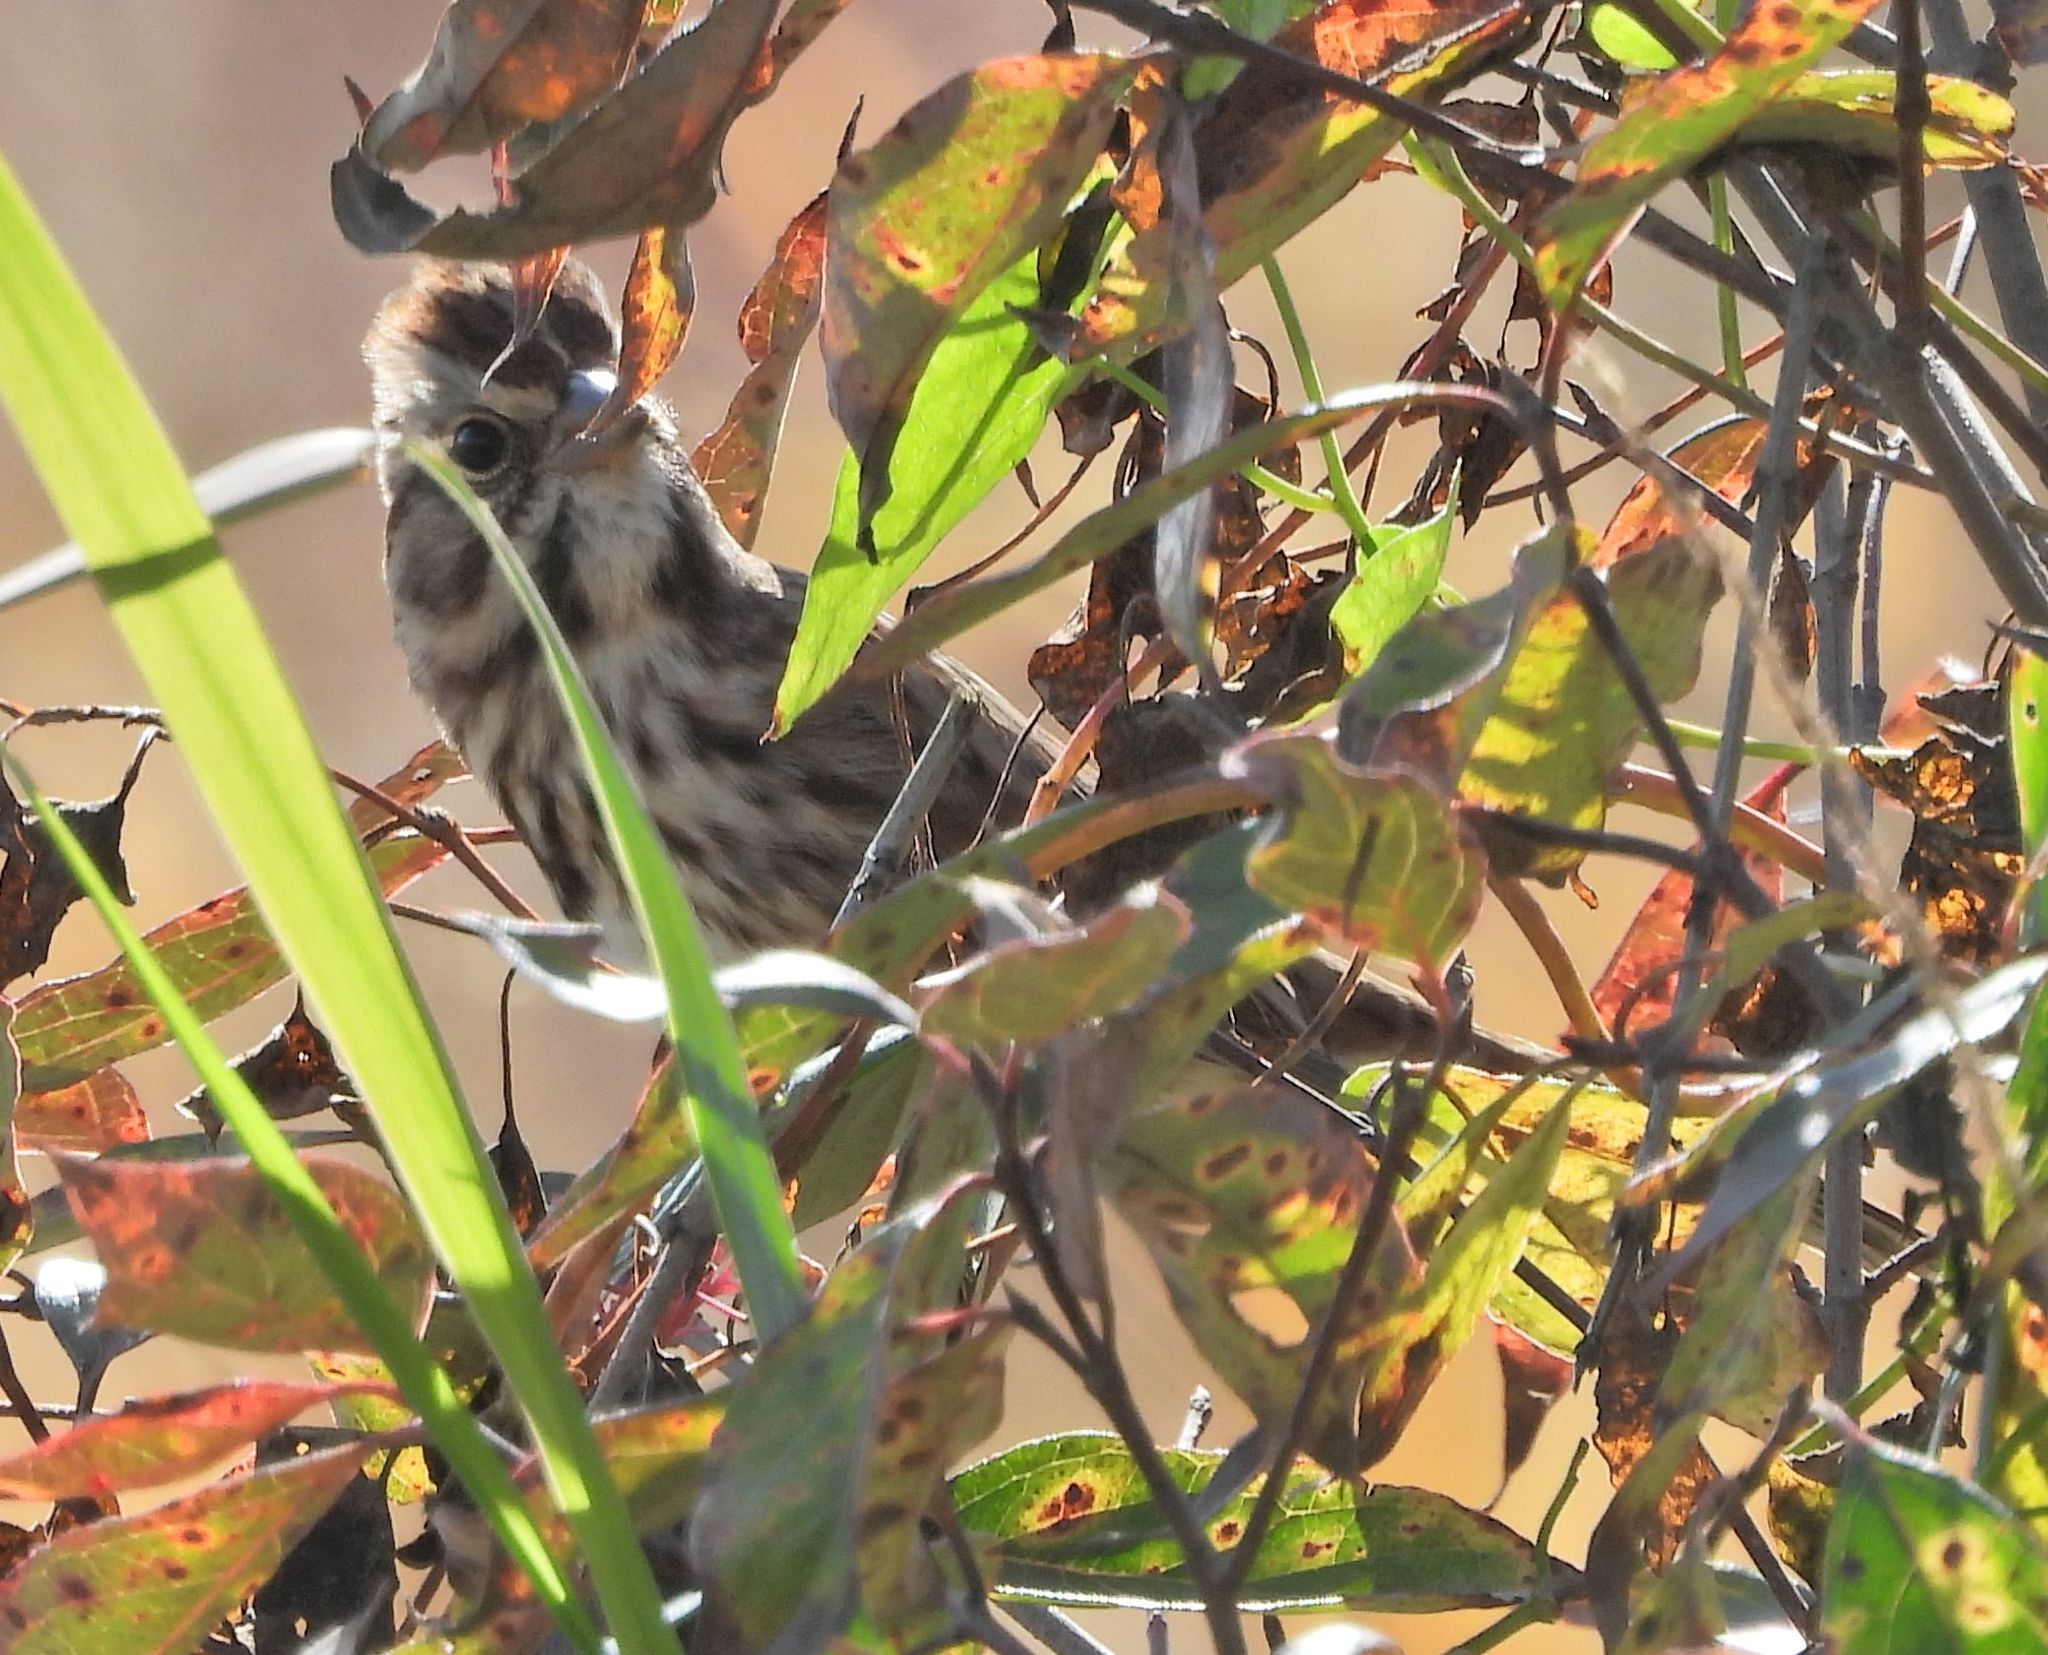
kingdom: Animalia
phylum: Chordata
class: Aves
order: Passeriformes
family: Passerellidae
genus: Melospiza
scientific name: Melospiza melodia
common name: Song sparrow
